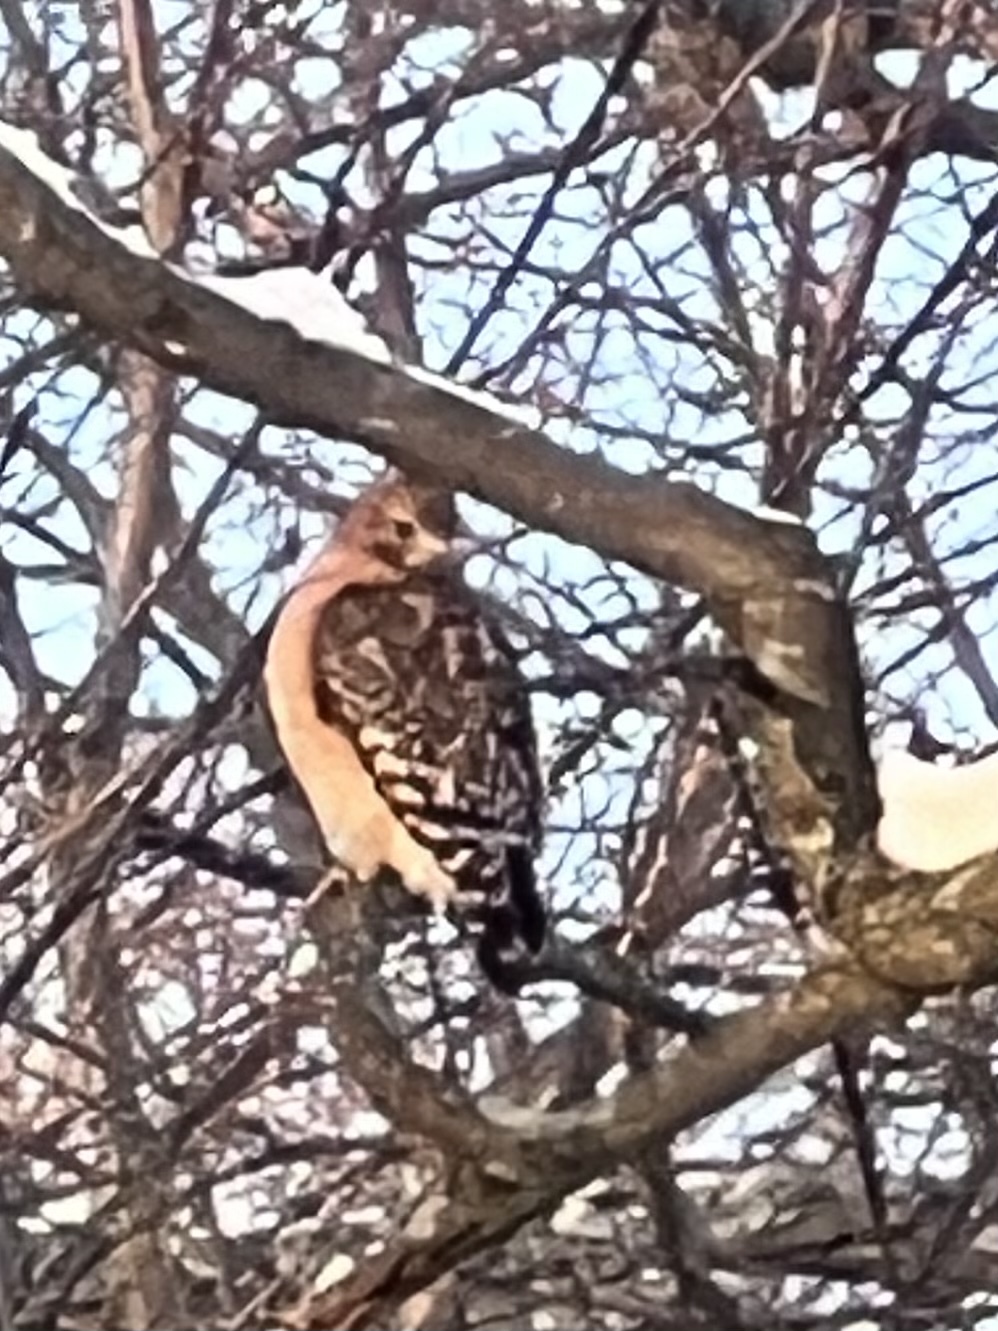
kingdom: Animalia
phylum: Chordata
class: Aves
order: Accipitriformes
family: Accipitridae
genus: Buteo
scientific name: Buteo lineatus
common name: Red-shouldered hawk
